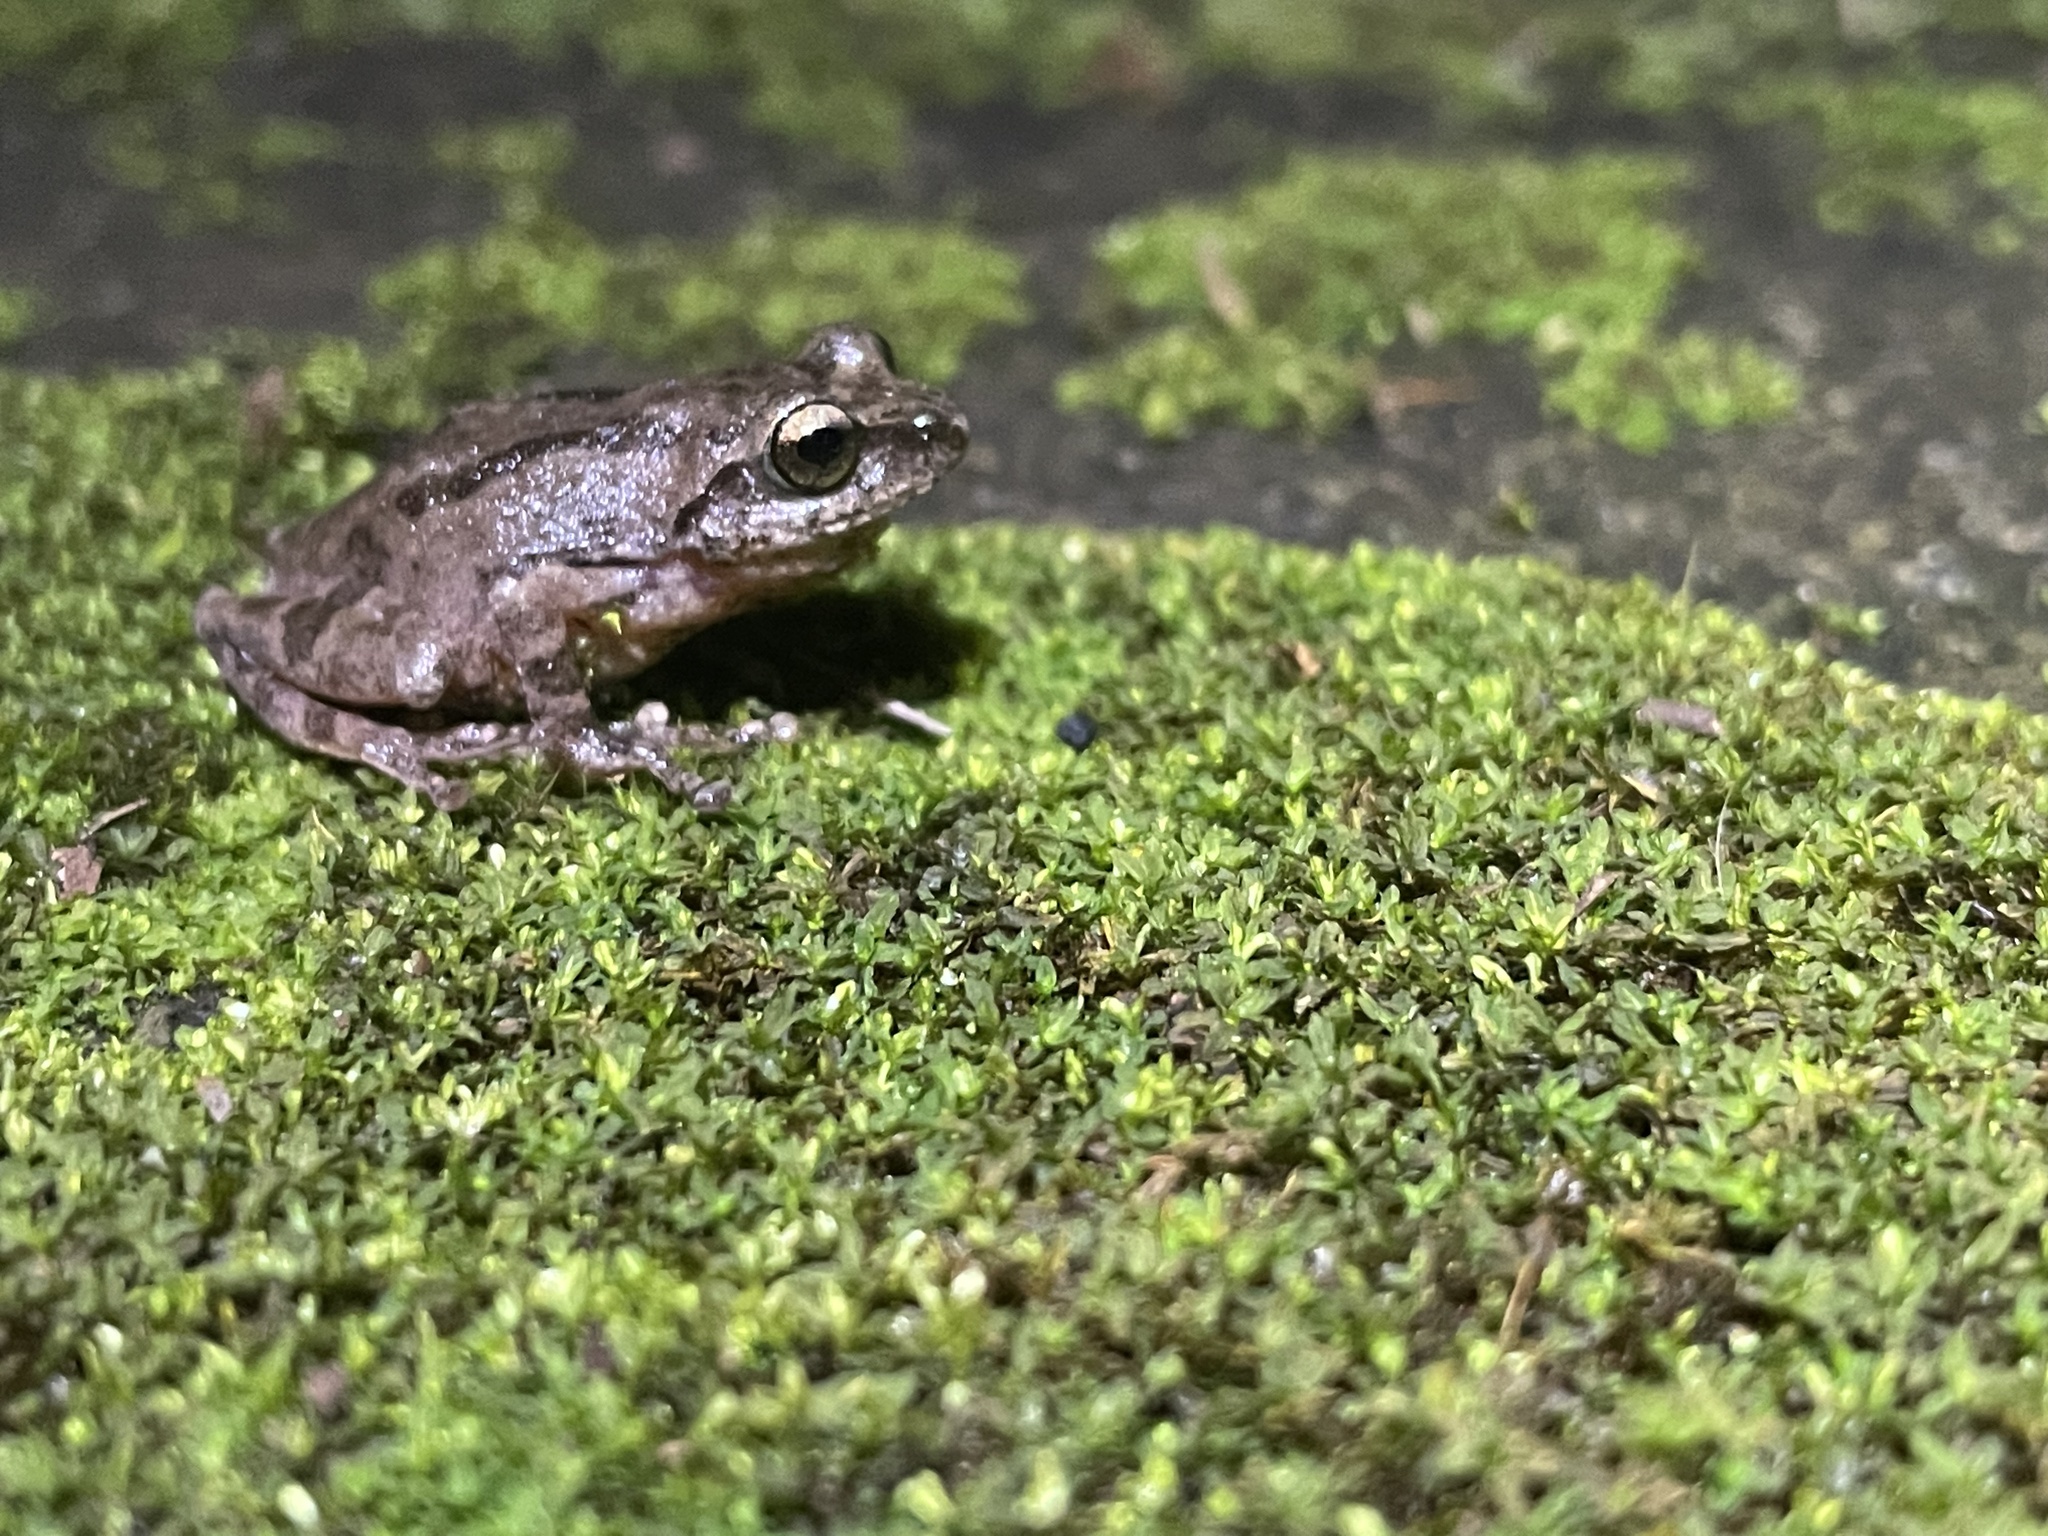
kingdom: Animalia
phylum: Chordata
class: Amphibia
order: Anura
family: Rhacophoridae
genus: Raorchestes
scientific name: Raorchestes charius
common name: Seshachar's bush frog
